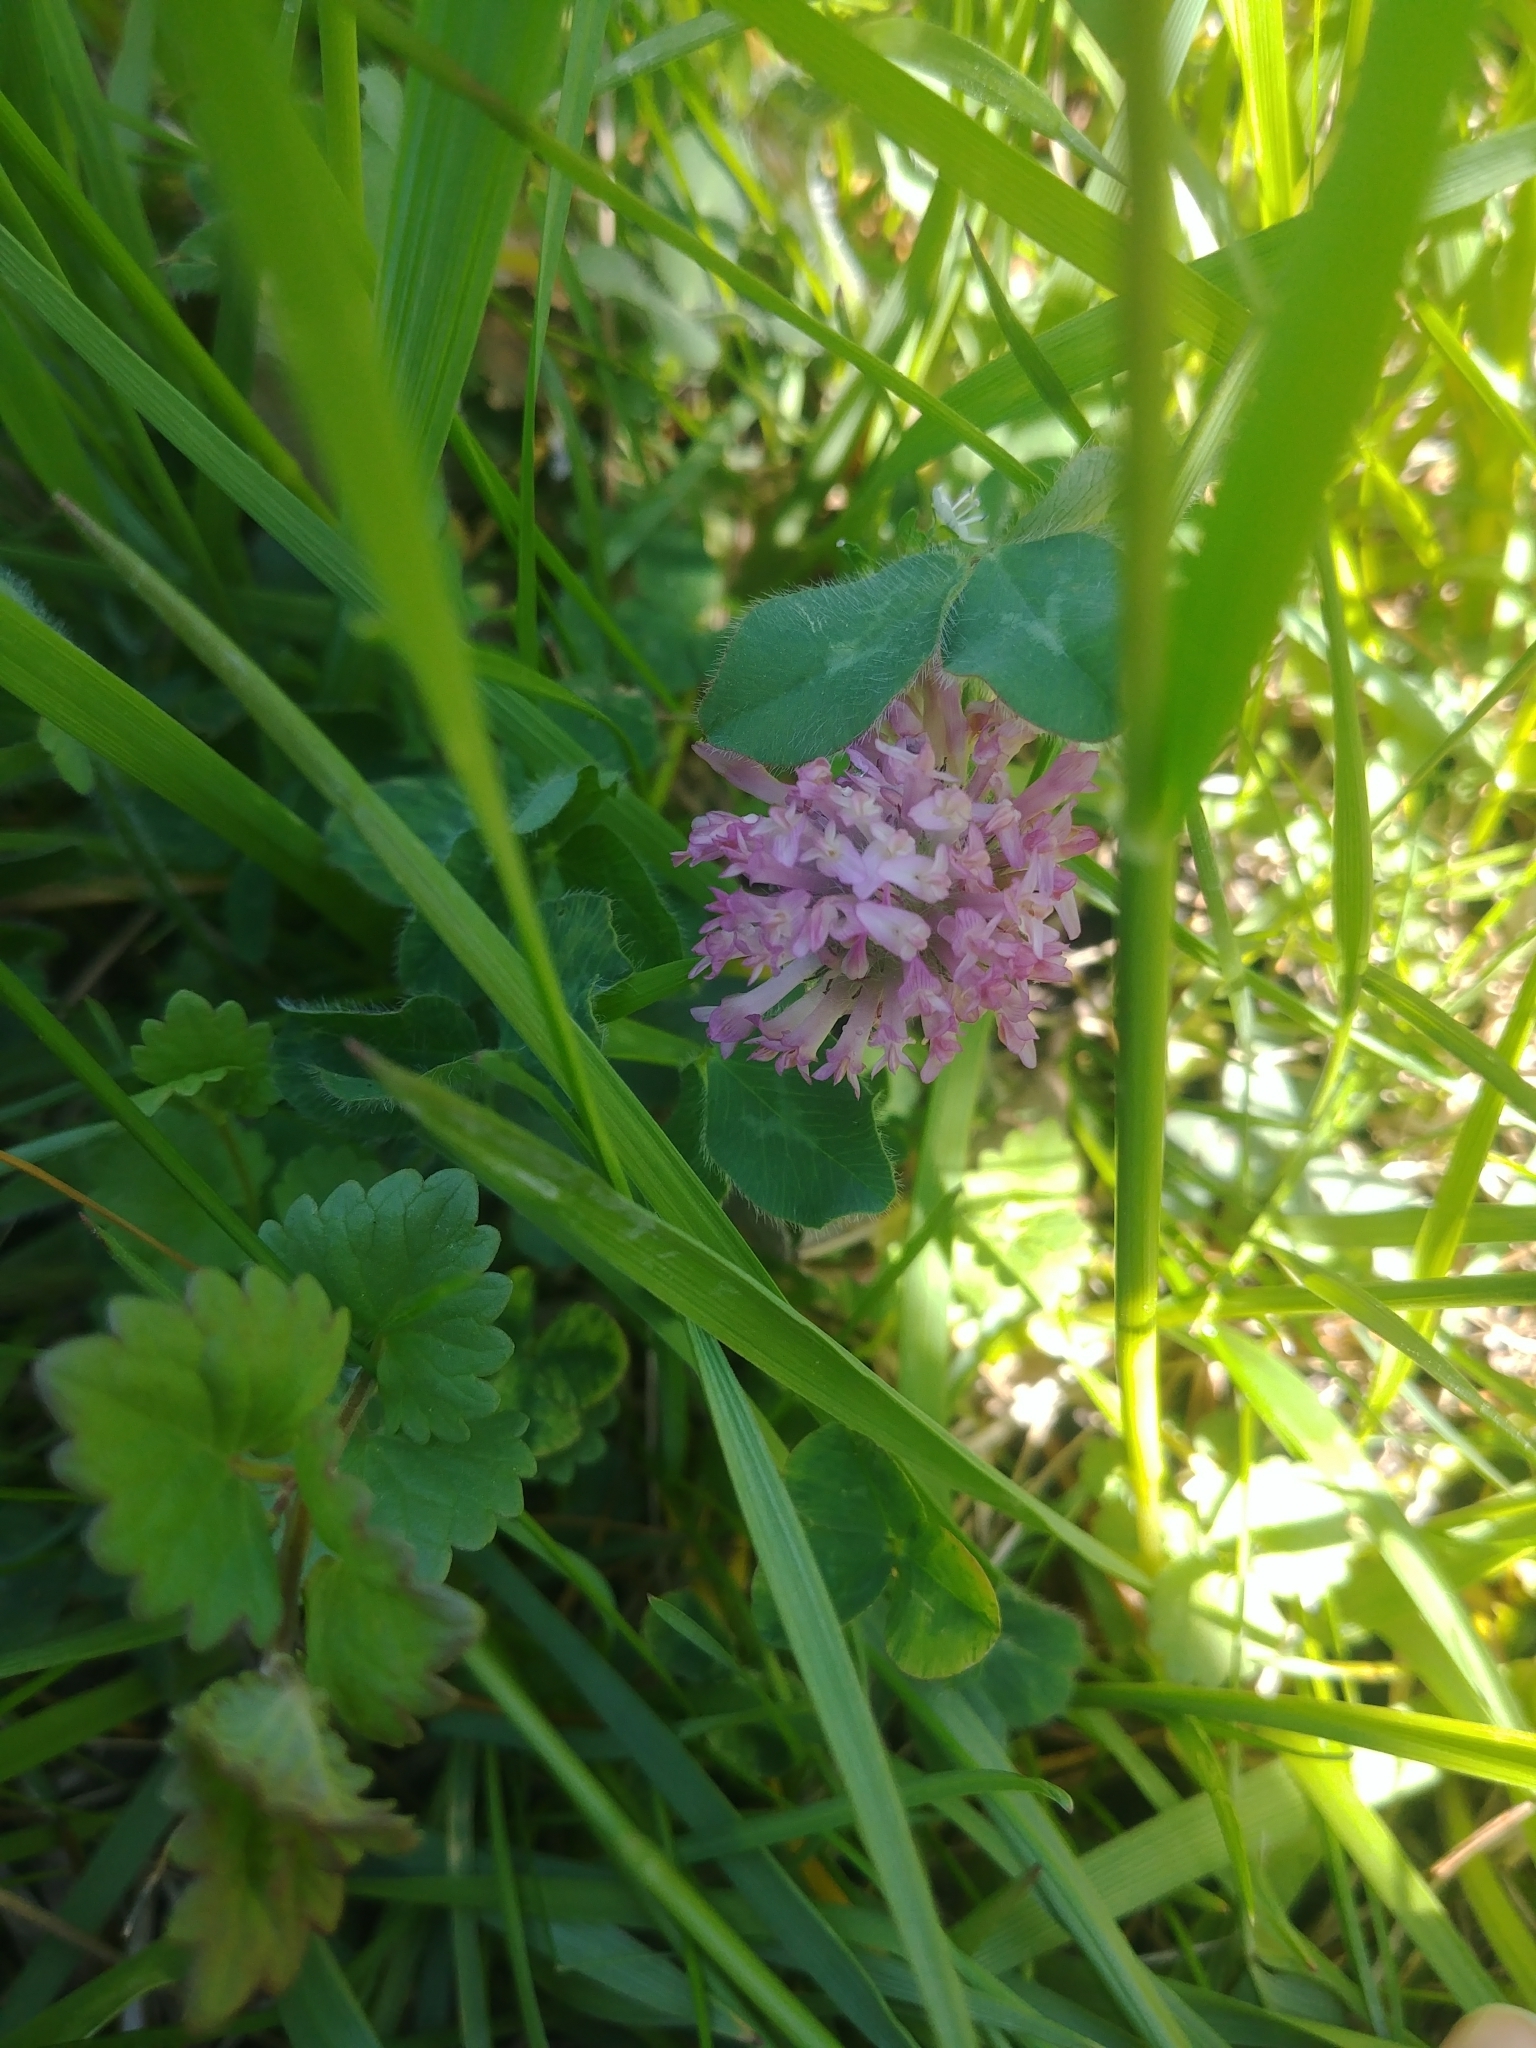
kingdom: Plantae
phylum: Tracheophyta
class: Magnoliopsida
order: Fabales
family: Fabaceae
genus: Trifolium
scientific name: Trifolium pratense
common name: Red clover
